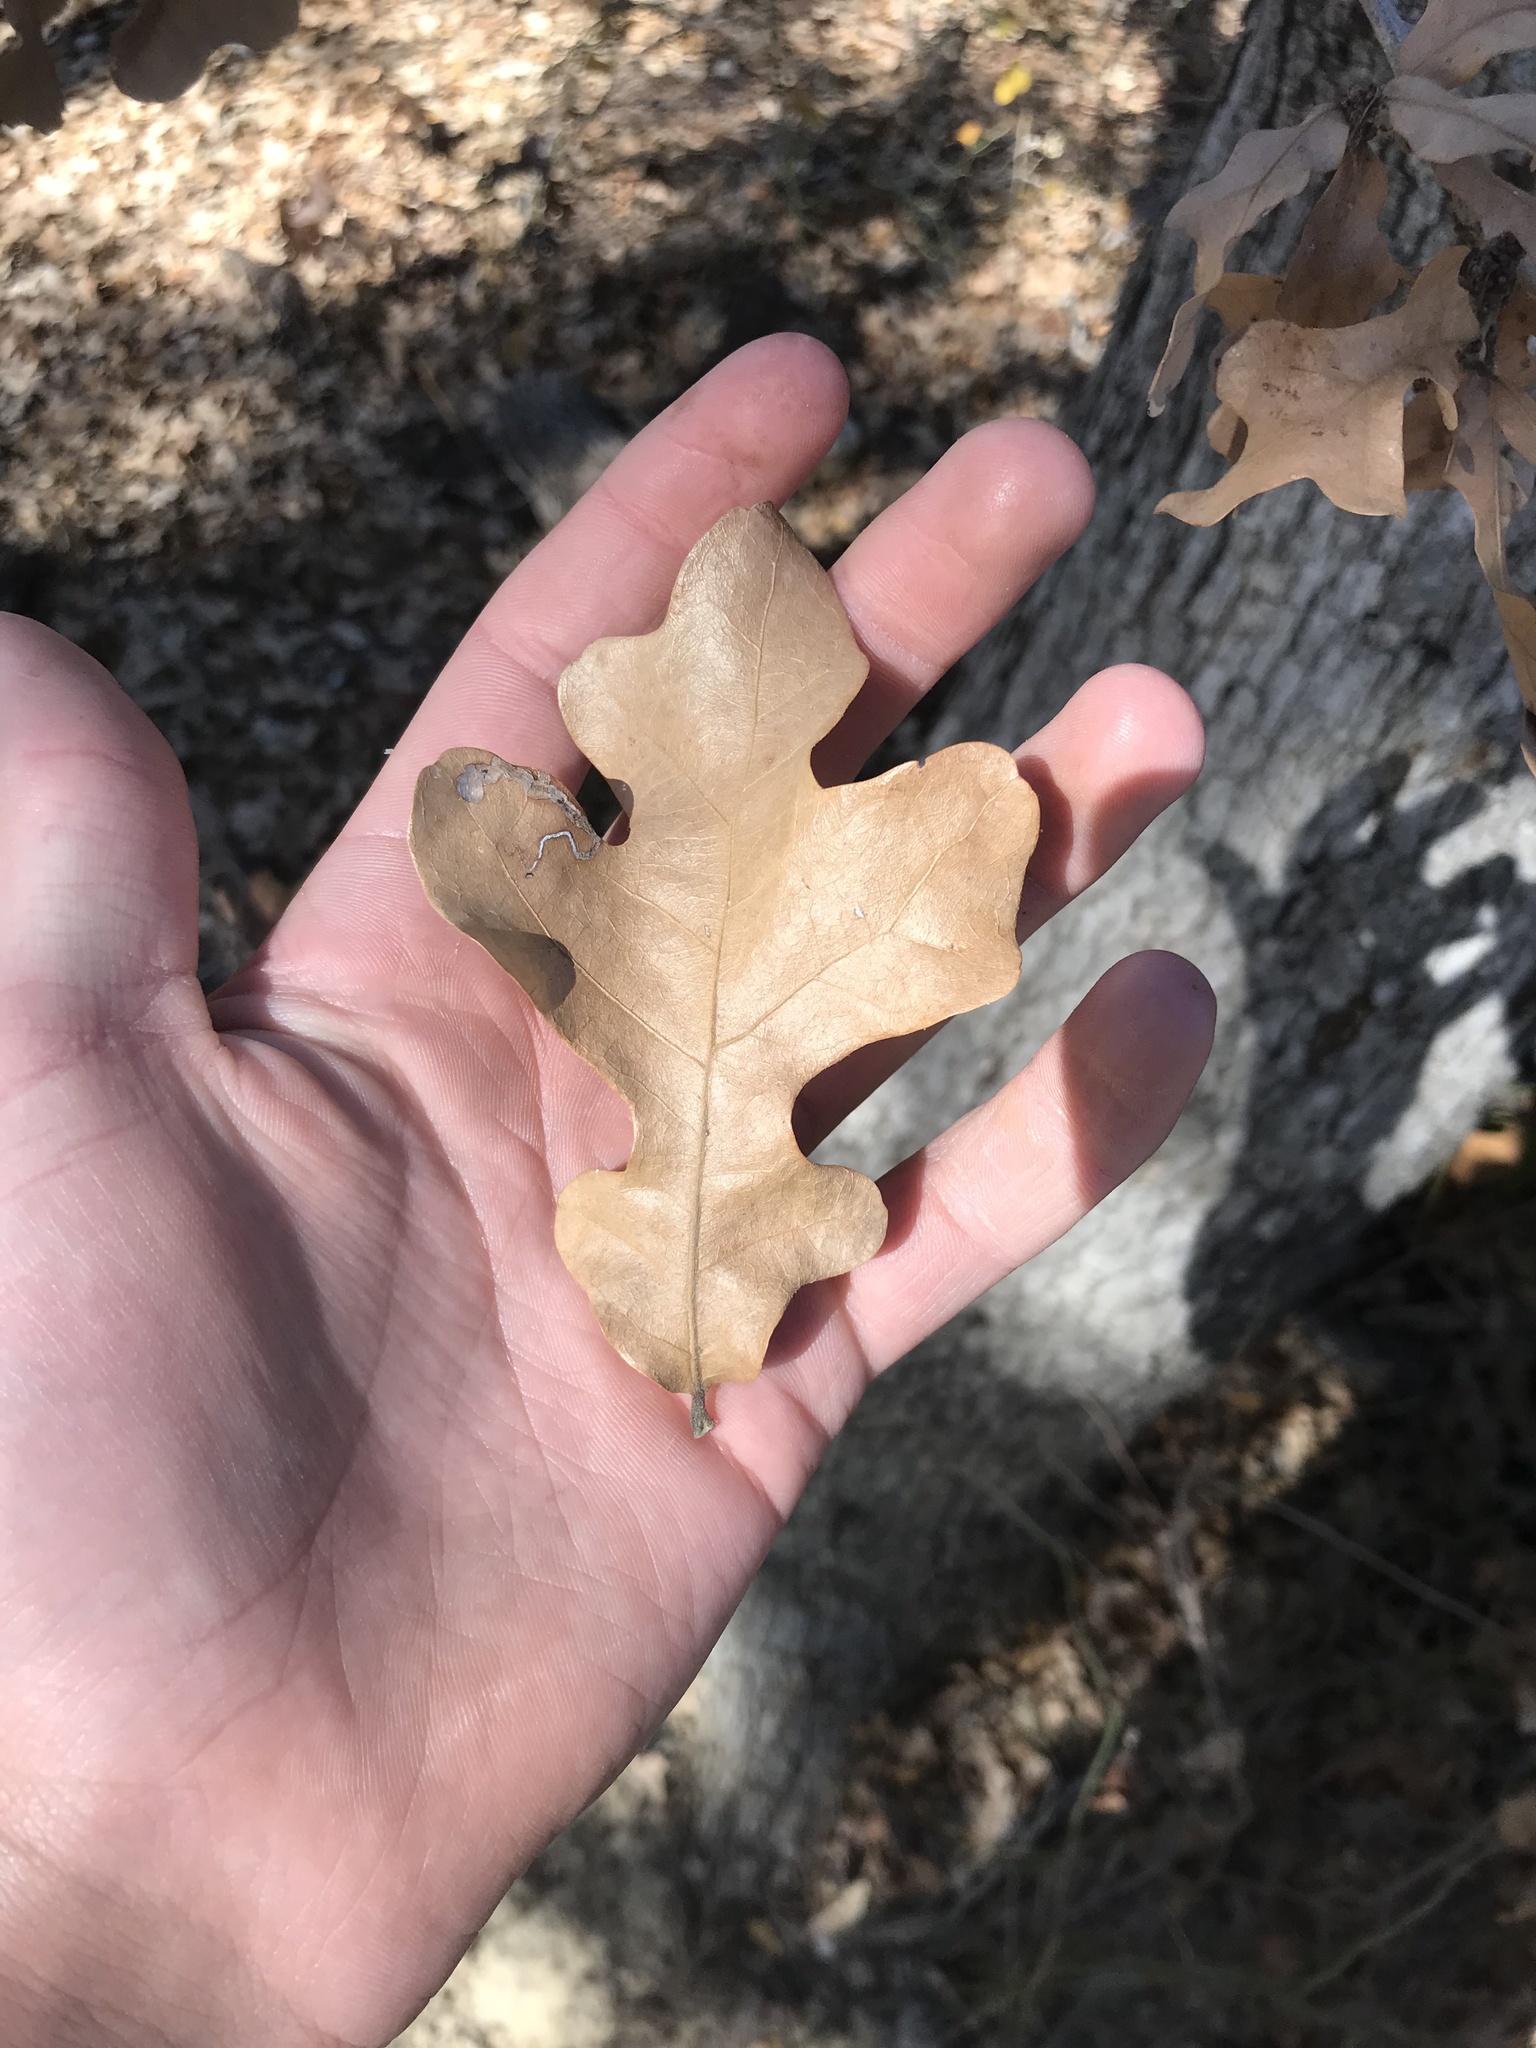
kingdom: Plantae
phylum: Tracheophyta
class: Magnoliopsida
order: Fagales
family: Fagaceae
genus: Quercus
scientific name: Quercus stellata
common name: Post oak
